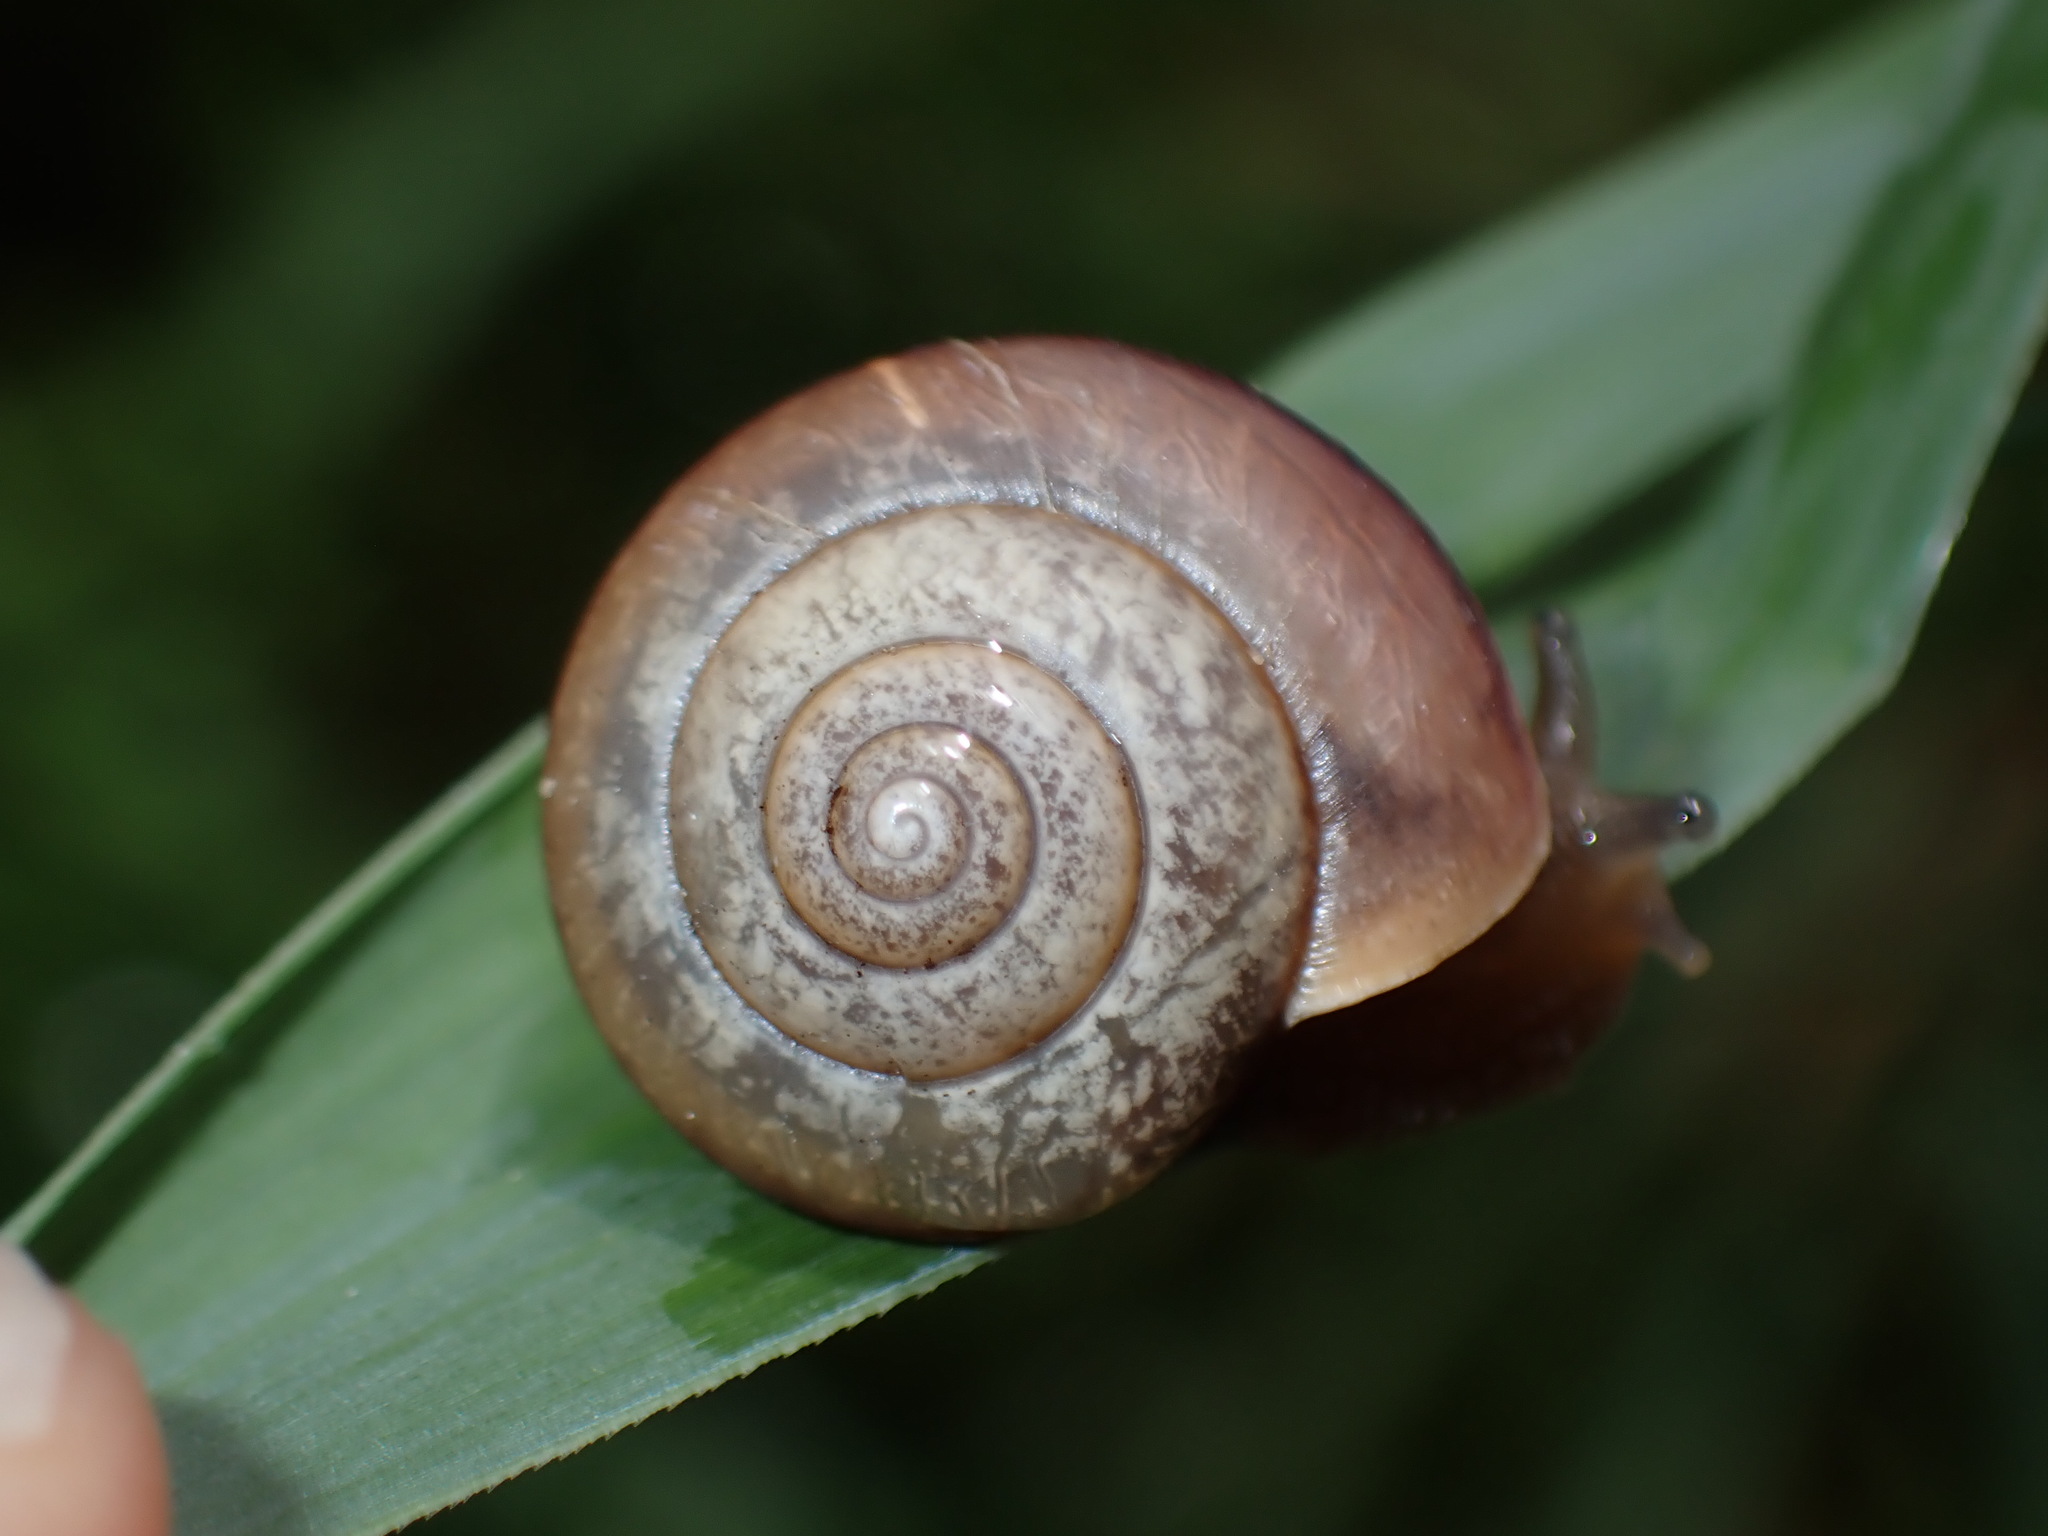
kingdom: Animalia
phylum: Mollusca
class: Gastropoda
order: Stylommatophora
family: Camaenidae
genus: Bradybaena
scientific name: Bradybaena similaris
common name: Asian trampsnail
